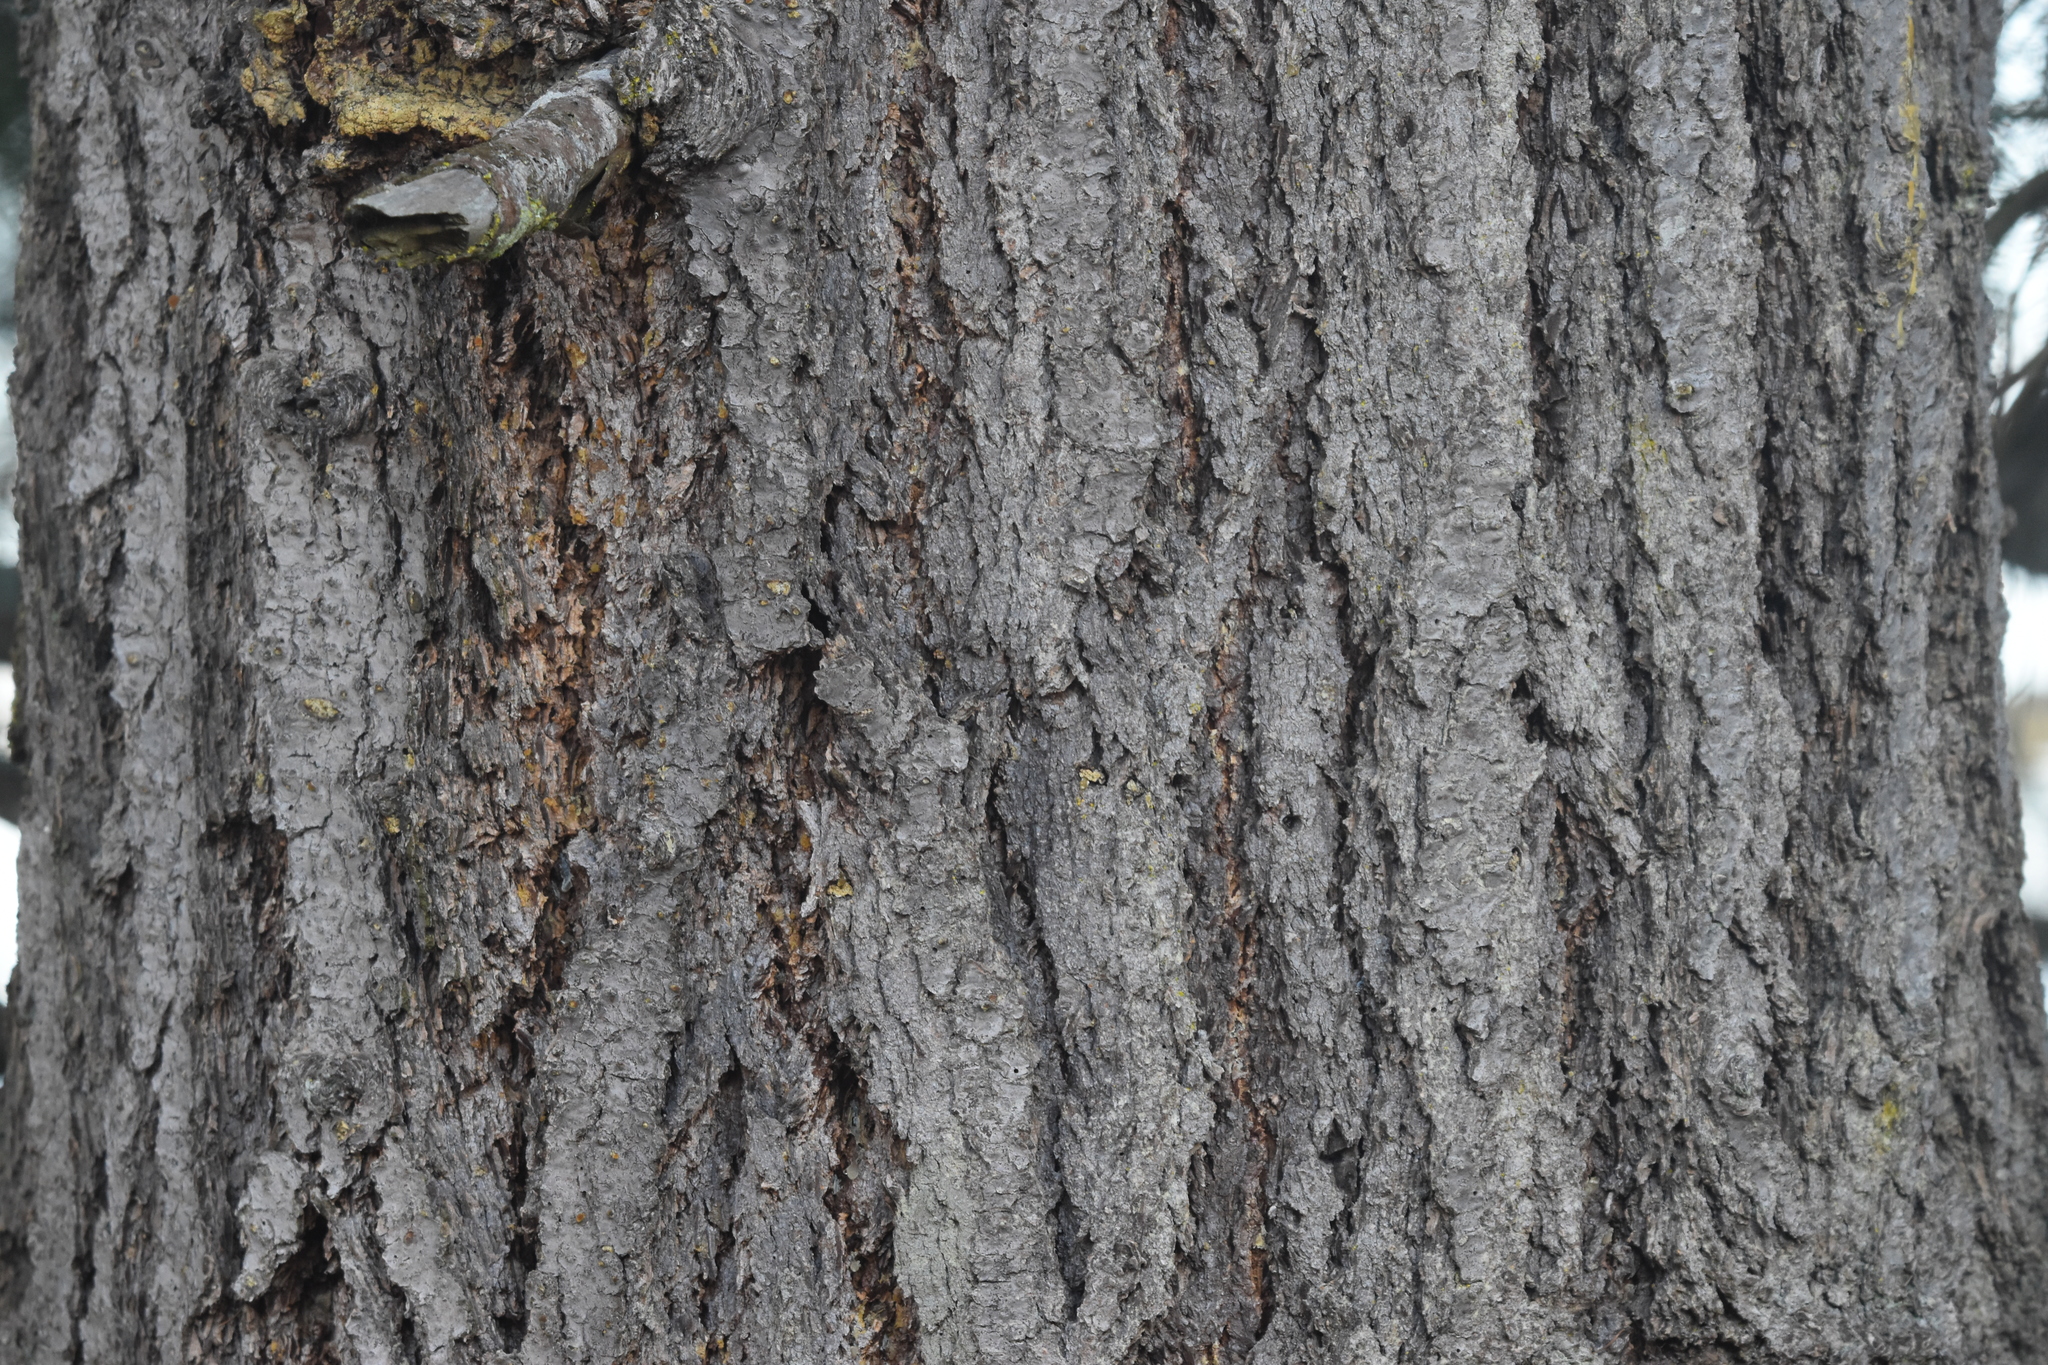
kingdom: Plantae
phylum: Tracheophyta
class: Pinopsida
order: Pinales
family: Pinaceae
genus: Pseudotsuga
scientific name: Pseudotsuga menziesii
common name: Douglas fir
